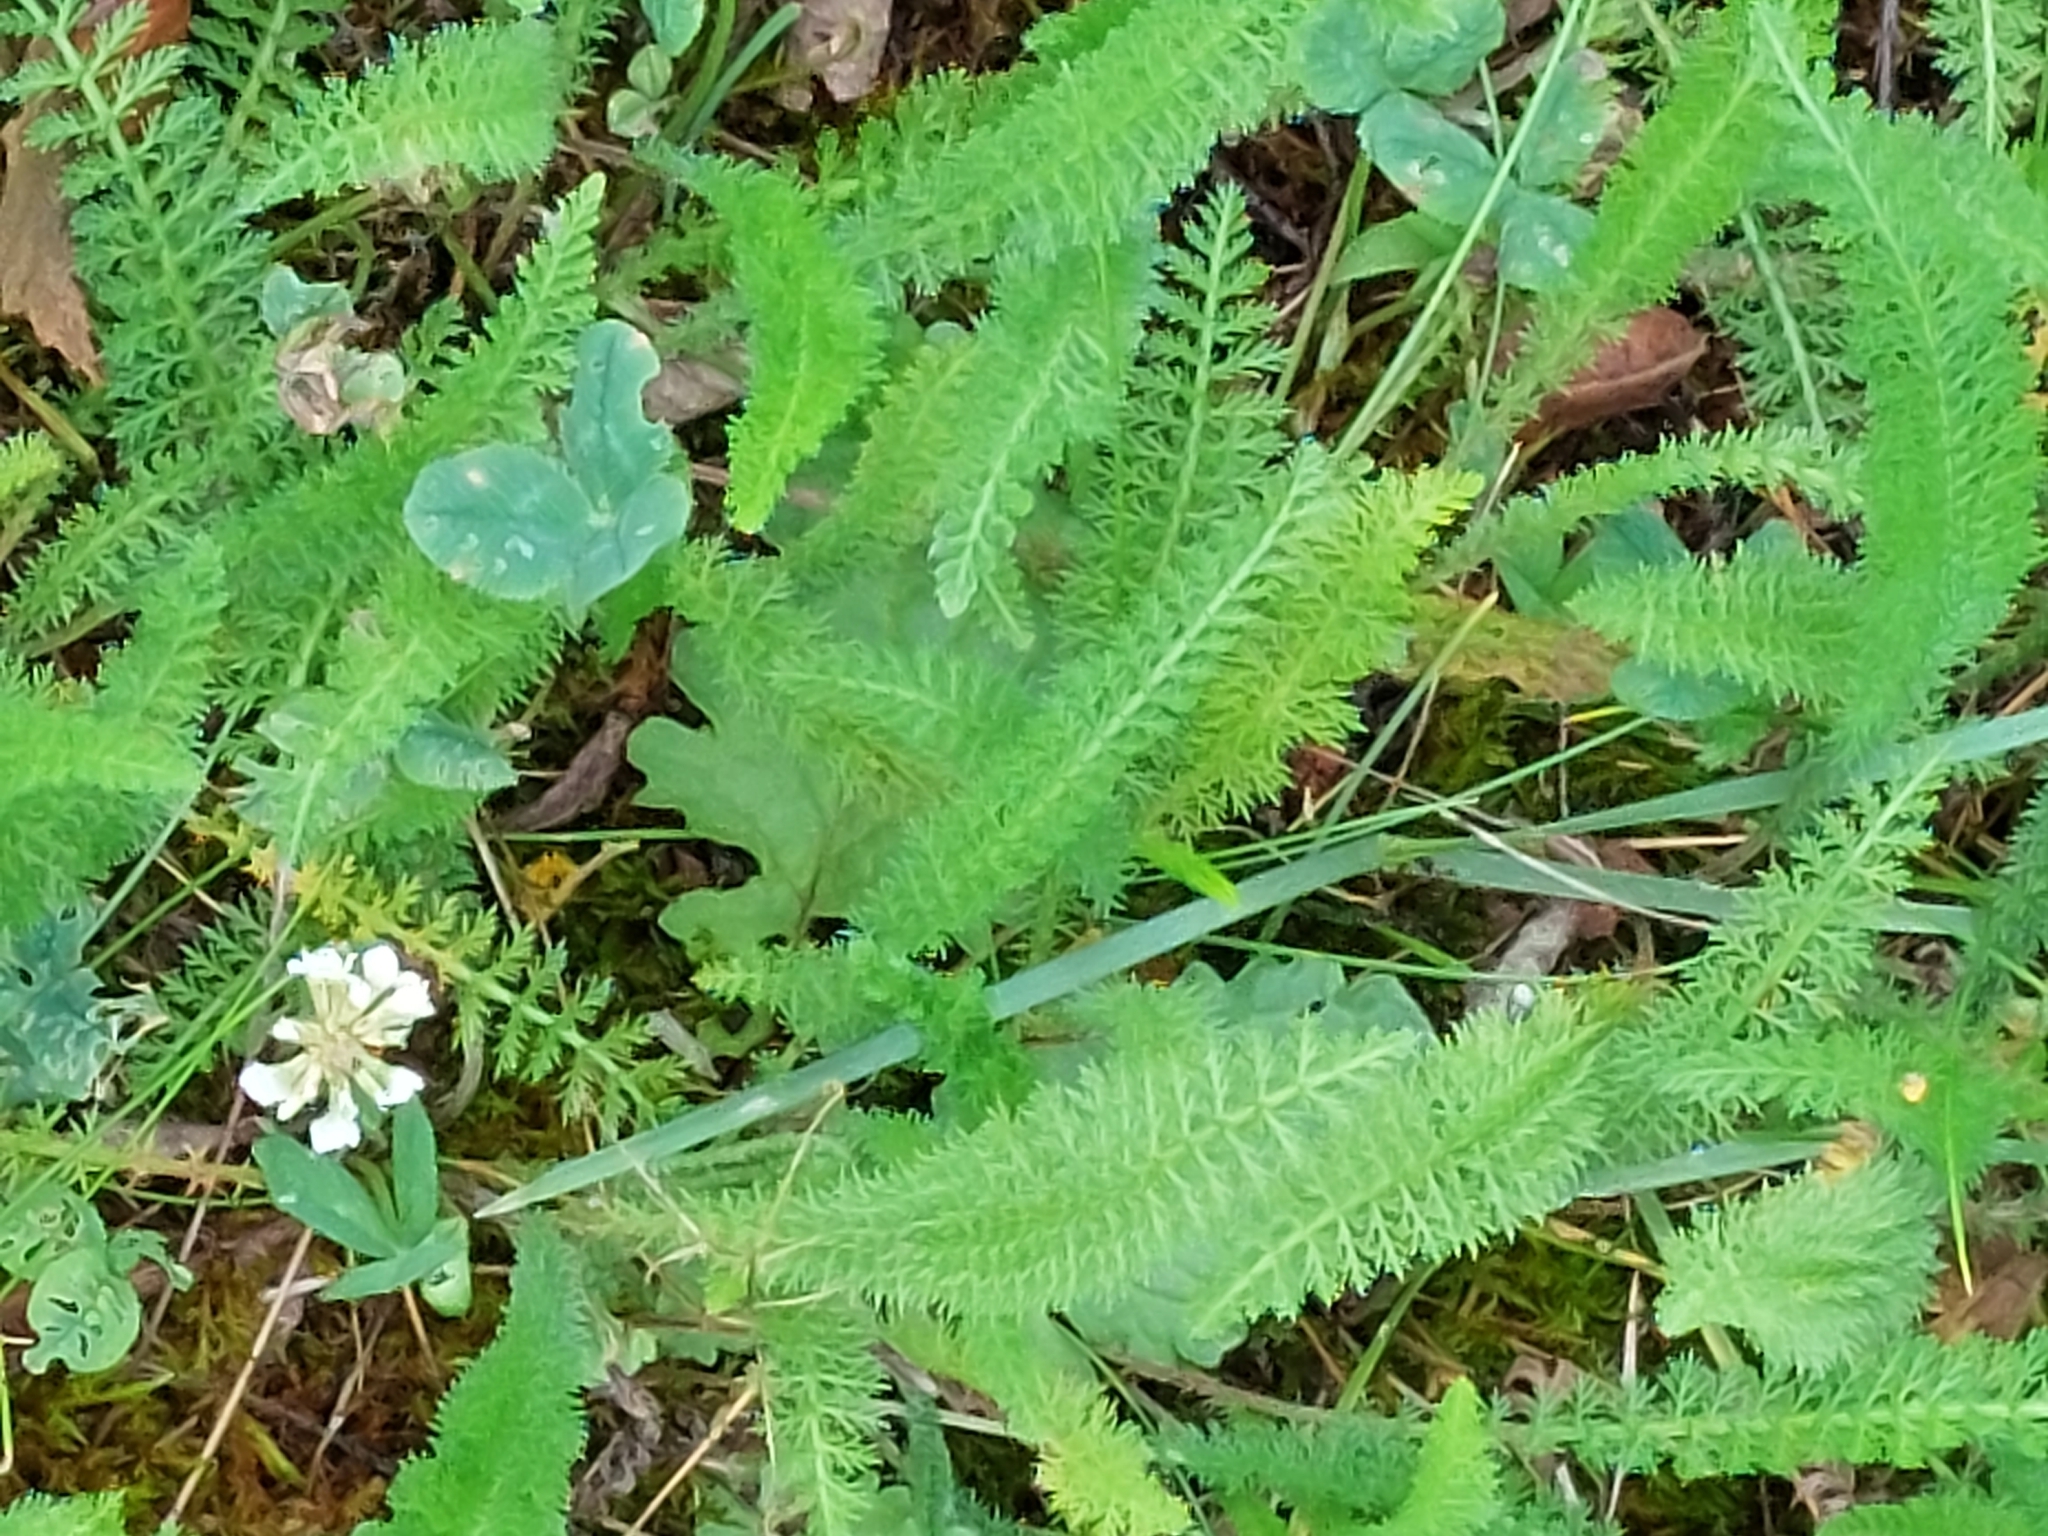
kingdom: Plantae
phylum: Tracheophyta
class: Magnoliopsida
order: Asterales
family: Asteraceae
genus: Achillea
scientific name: Achillea millefolium
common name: Yarrow
